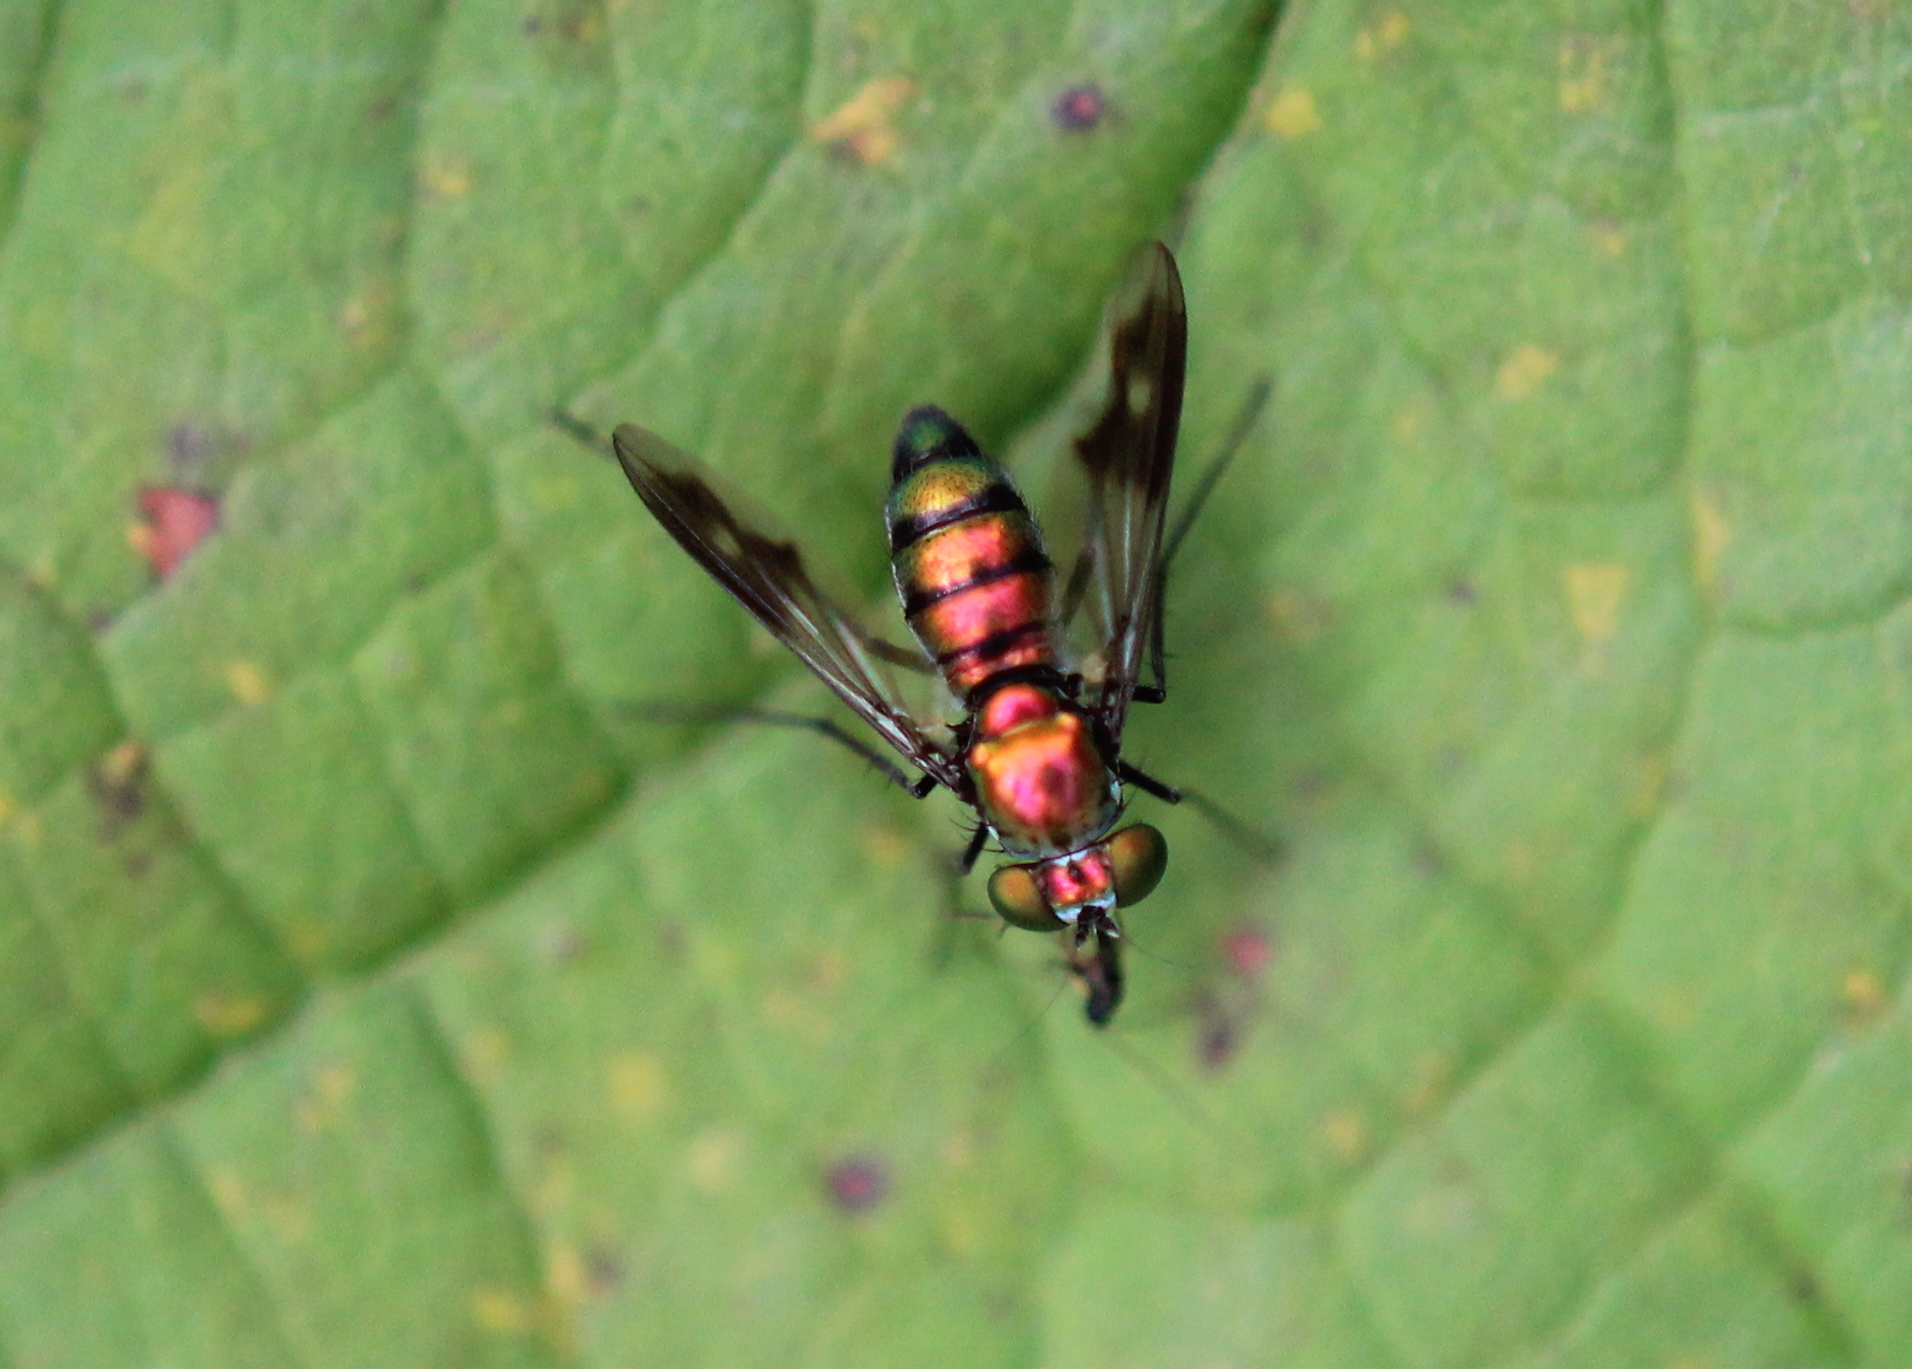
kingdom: Animalia
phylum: Arthropoda
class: Insecta
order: Diptera
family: Dolichopodidae
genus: Condylostylus
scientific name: Condylostylus patibulatus
